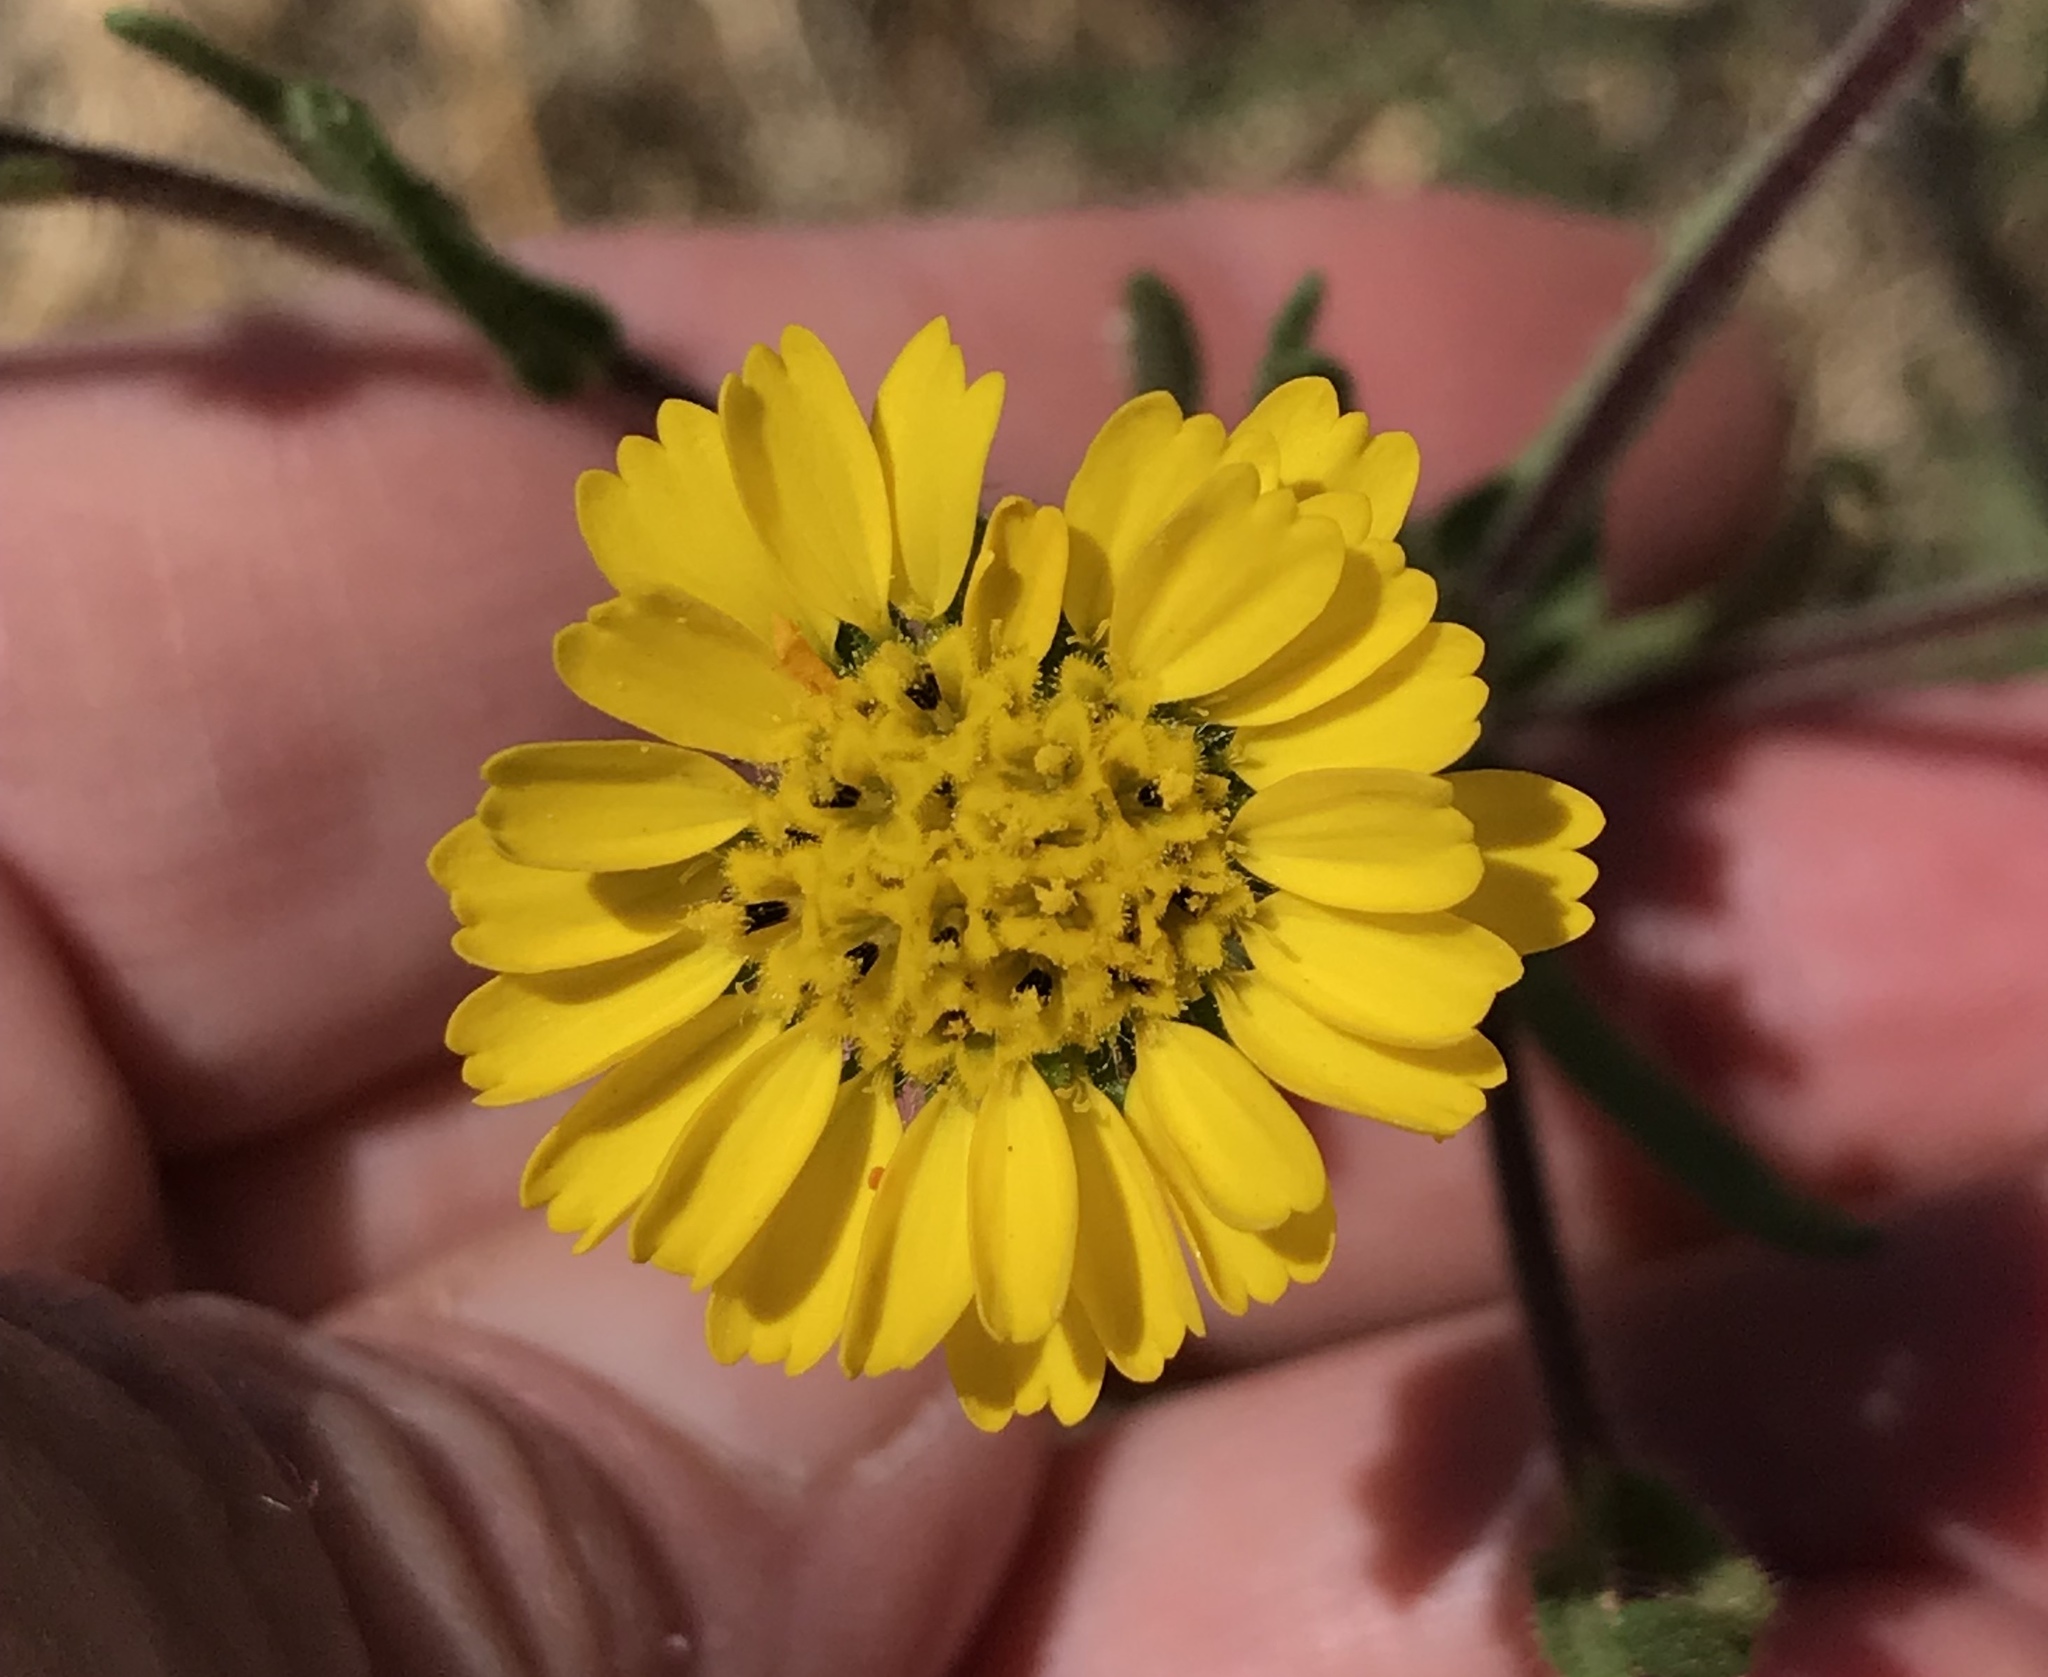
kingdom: Plantae
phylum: Tracheophyta
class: Magnoliopsida
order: Asterales
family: Asteraceae
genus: Deinandra
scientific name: Deinandra corymbosa
